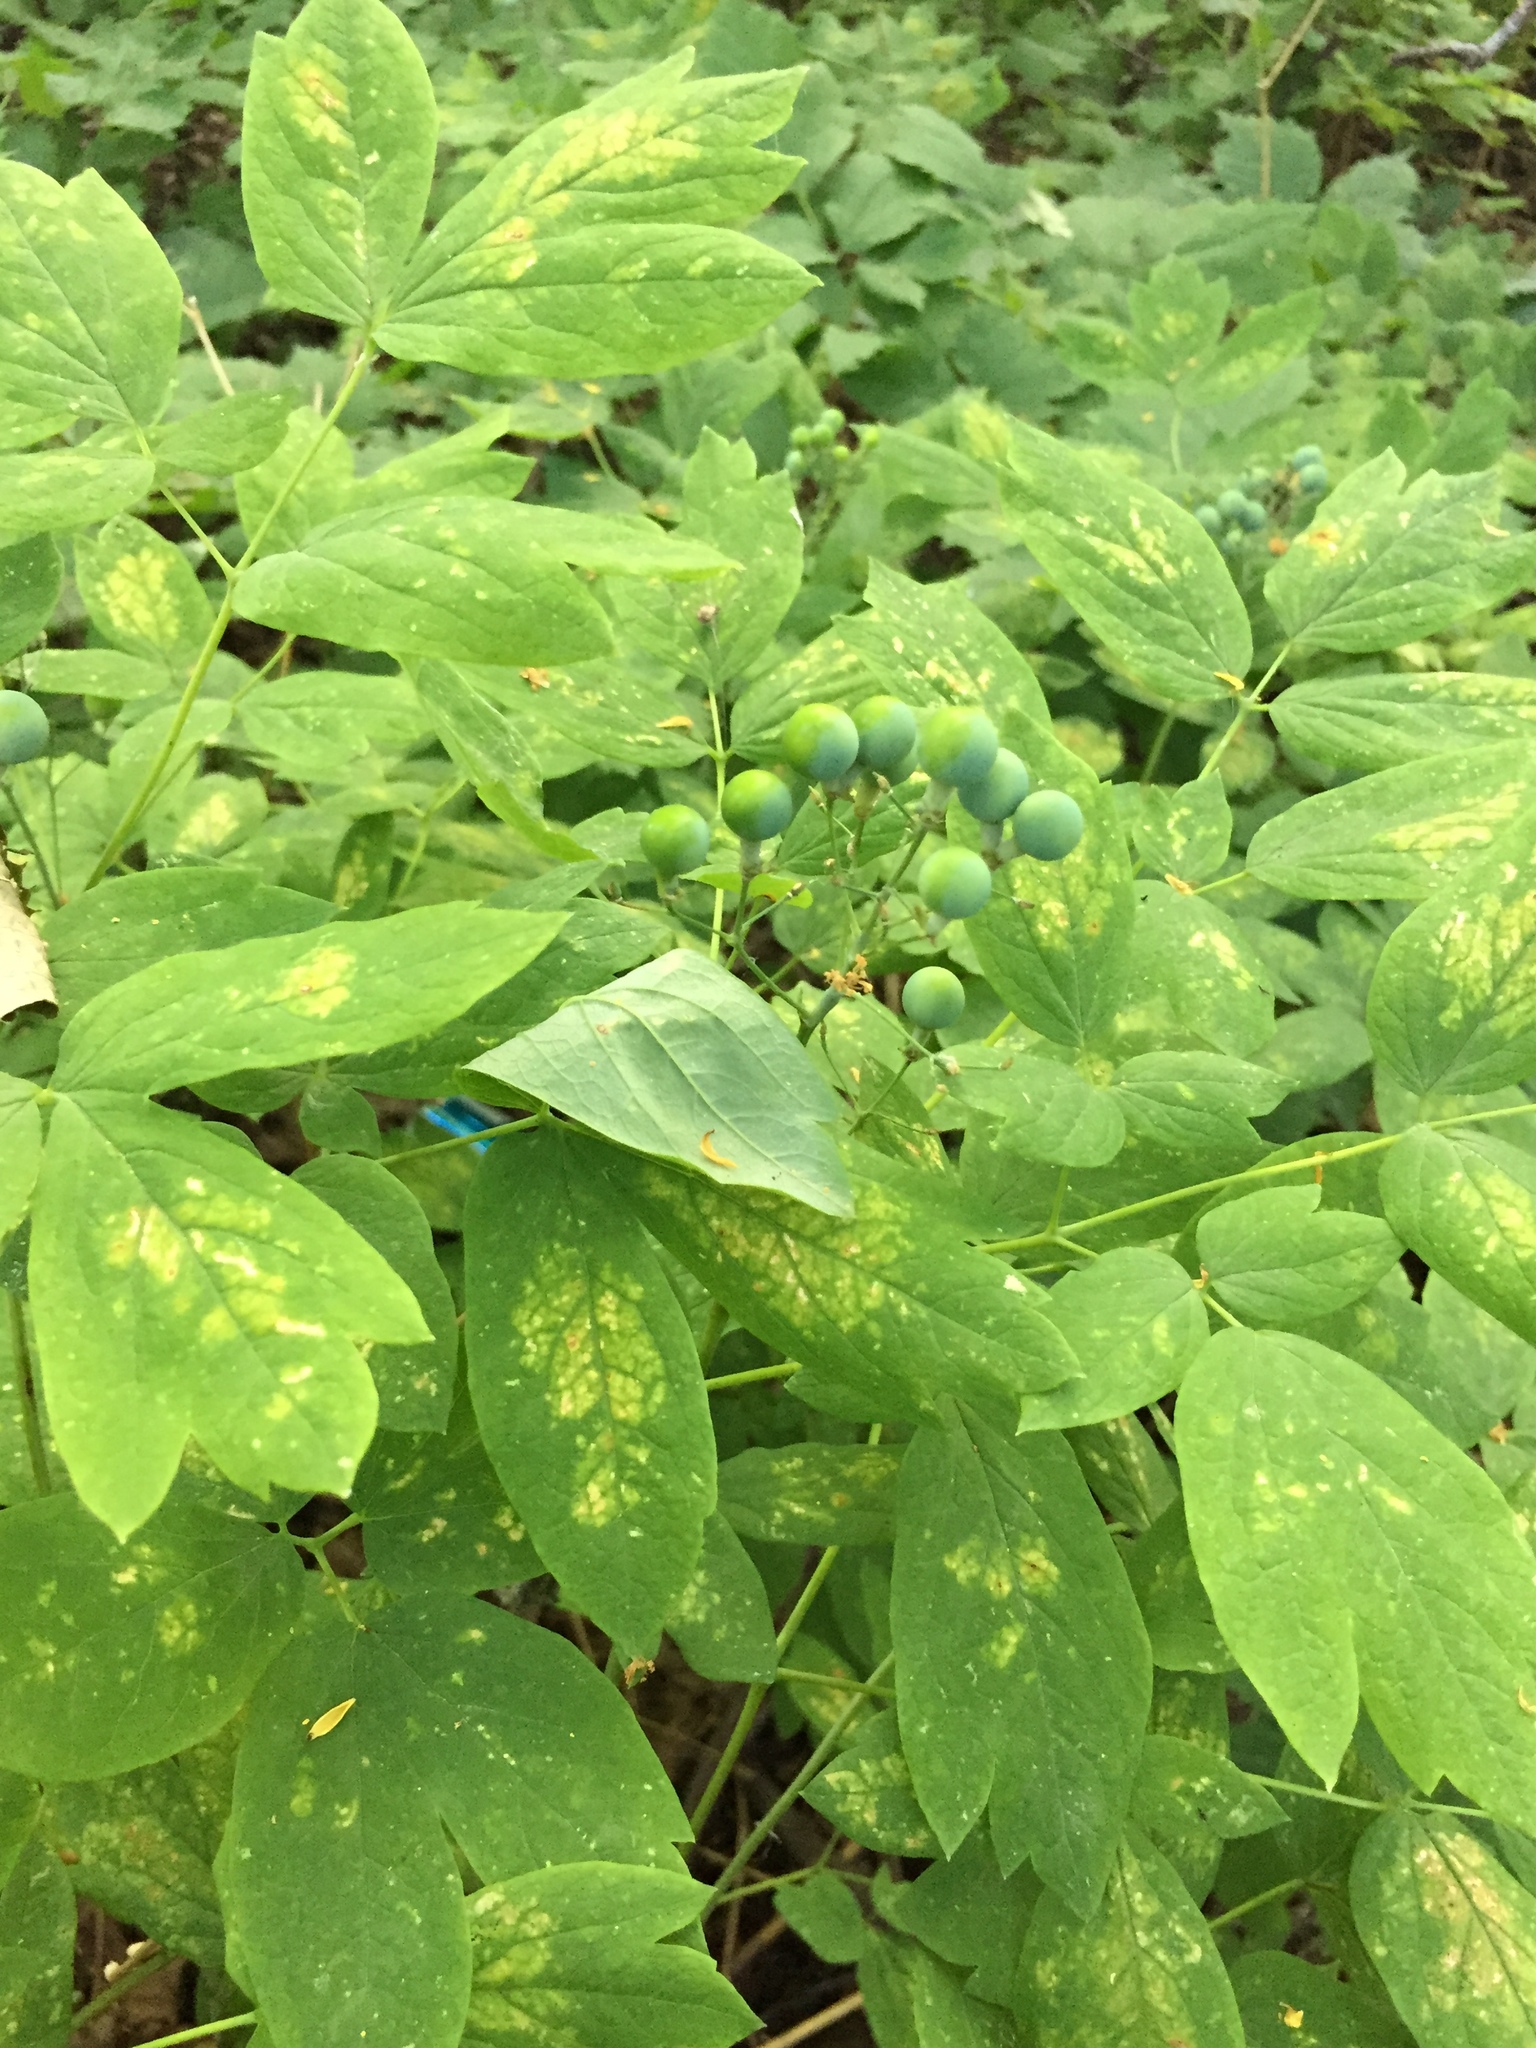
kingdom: Plantae
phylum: Tracheophyta
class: Magnoliopsida
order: Ranunculales
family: Berberidaceae
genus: Caulophyllum
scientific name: Caulophyllum thalictroides
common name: Blue cohosh
